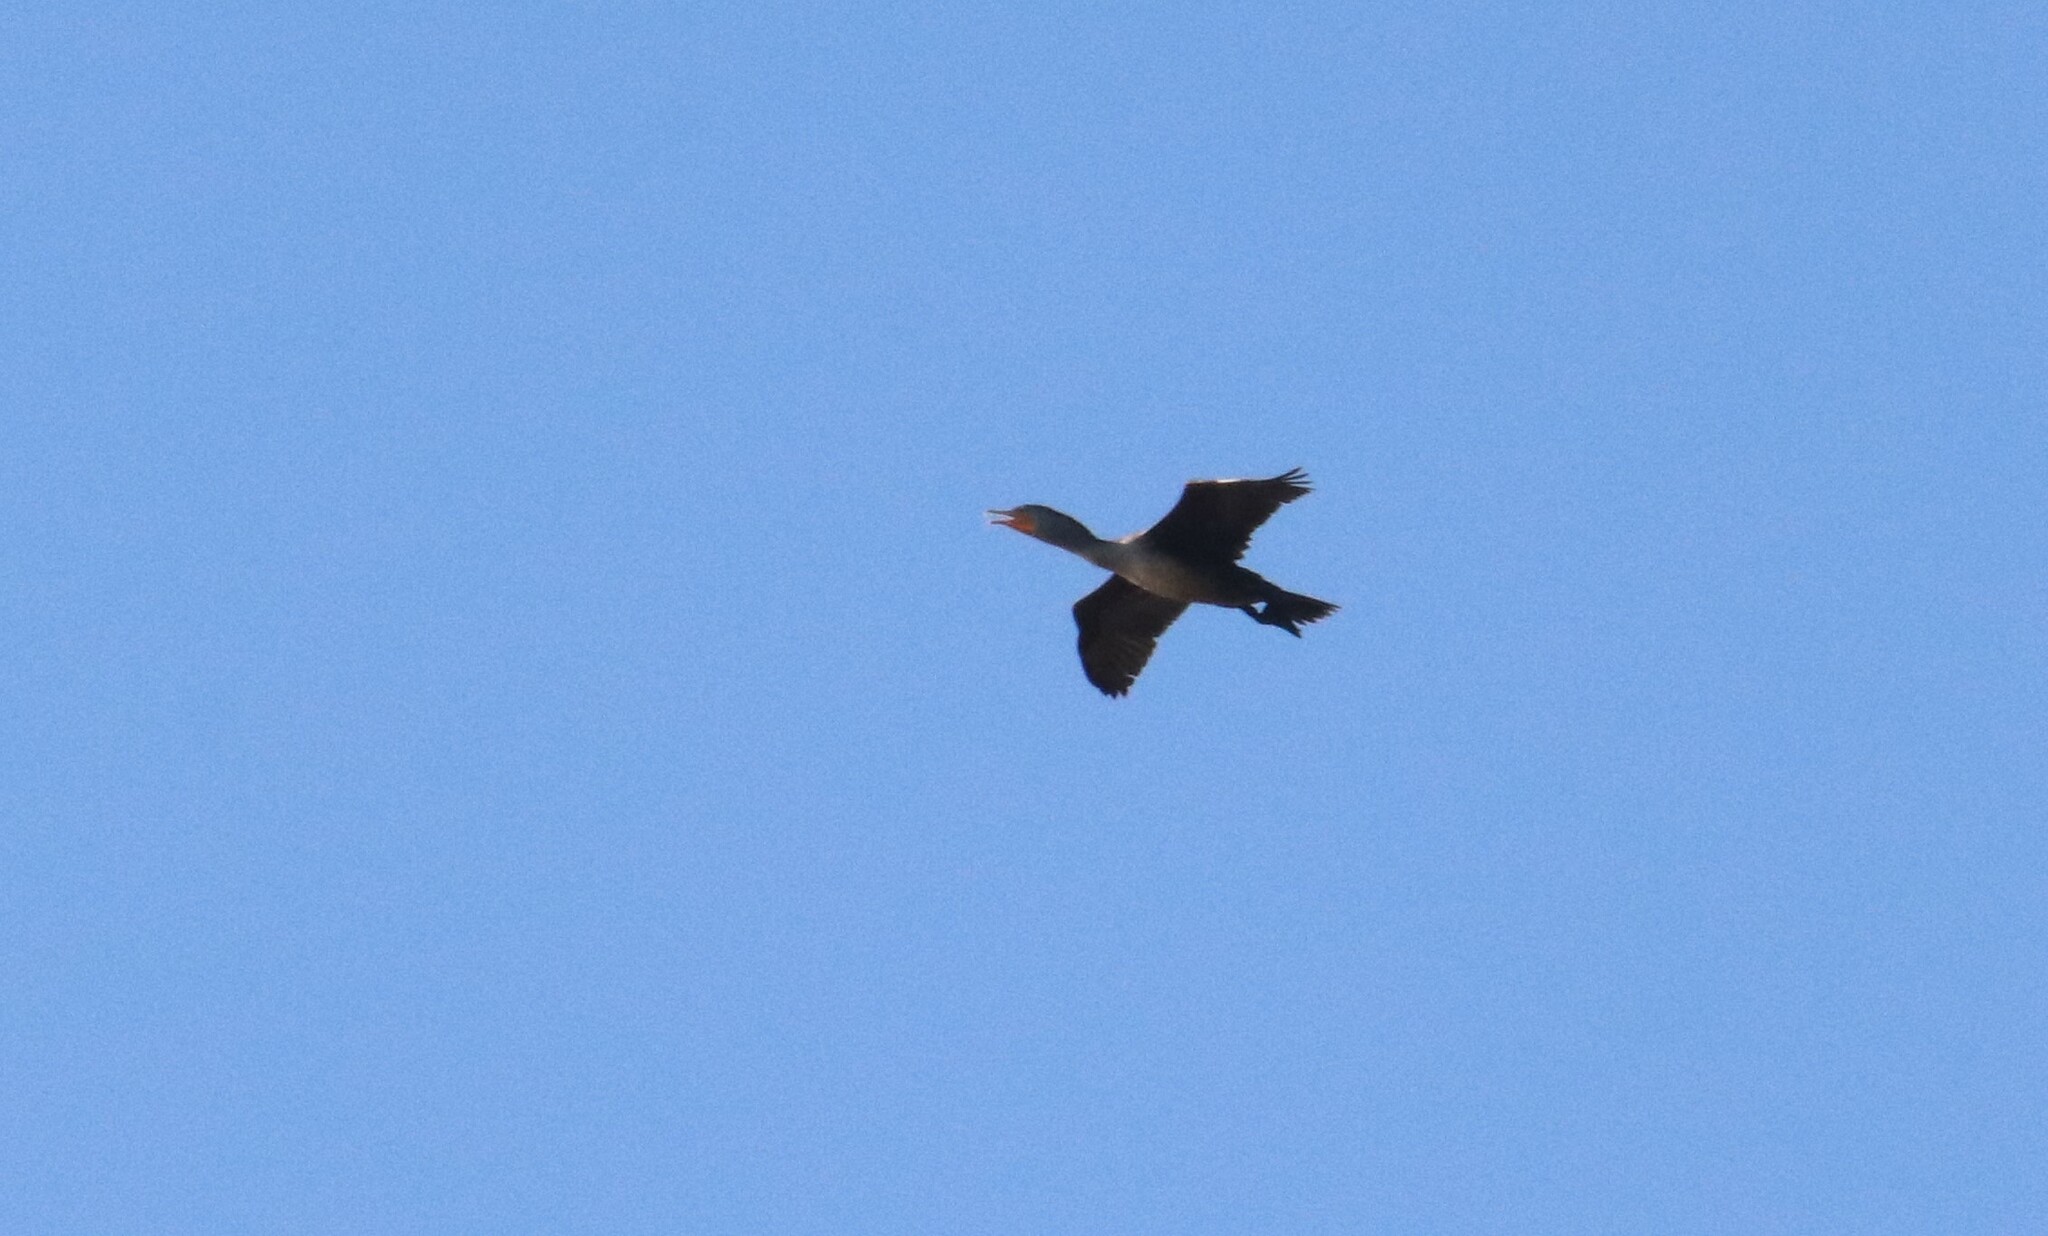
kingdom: Animalia
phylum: Chordata
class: Aves
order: Suliformes
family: Phalacrocoracidae
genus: Phalacrocorax
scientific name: Phalacrocorax auritus
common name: Double-crested cormorant
